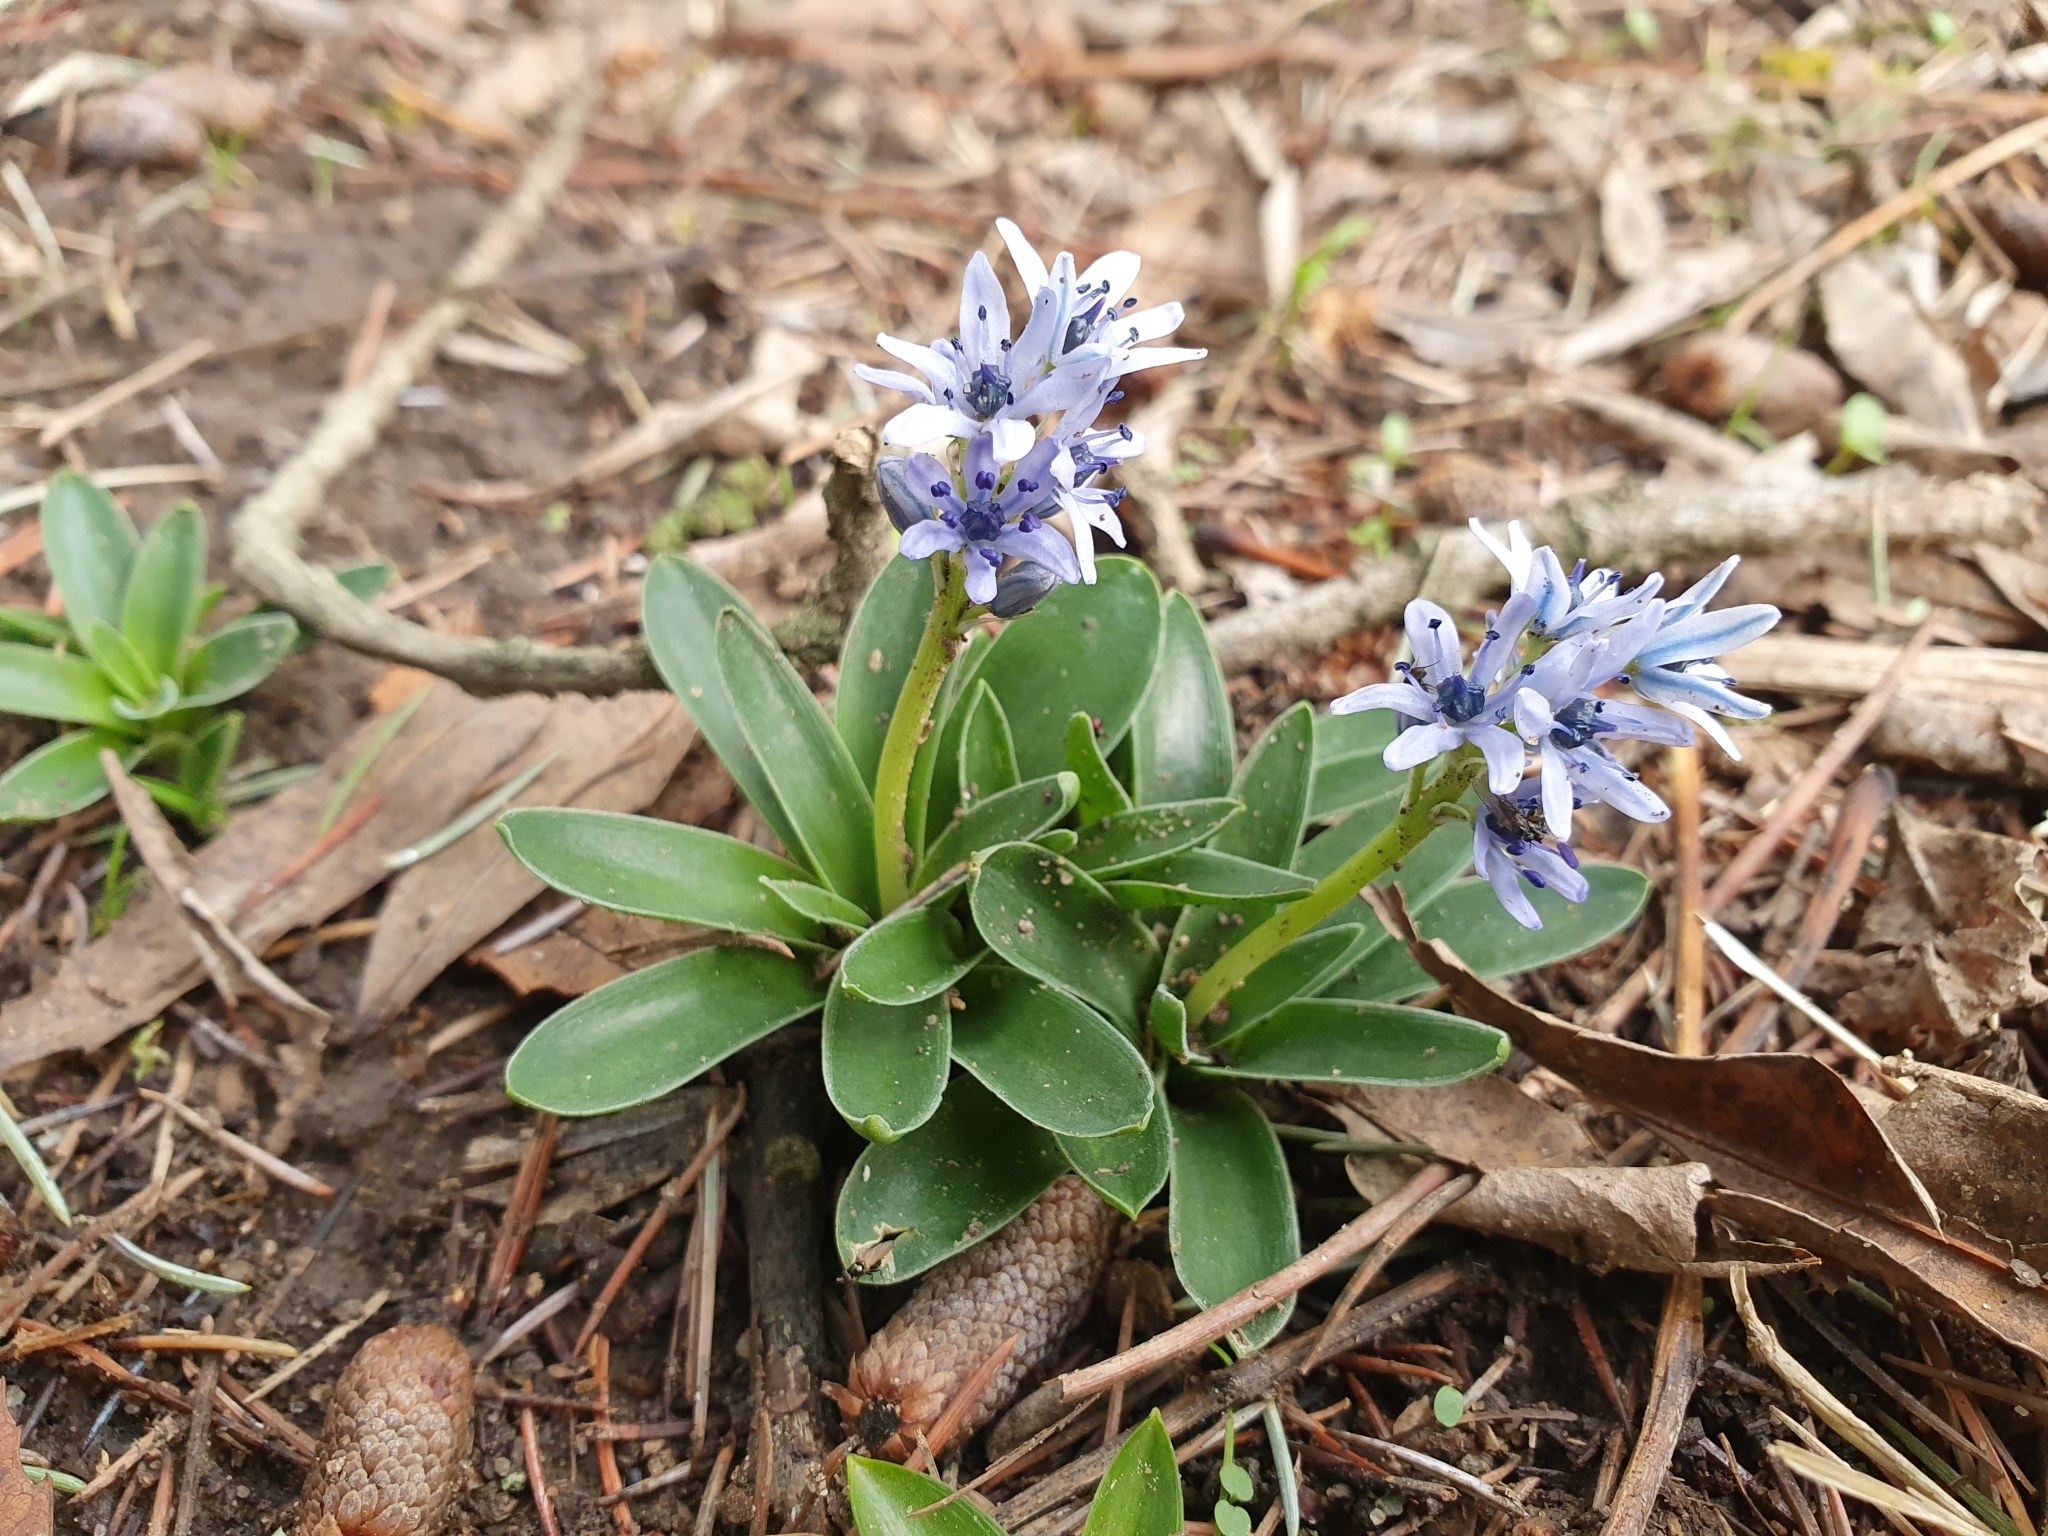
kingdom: Plantae
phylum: Tracheophyta
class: Liliopsida
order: Asparagales
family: Asparagaceae
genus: Hyacinthoides
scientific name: Hyacinthoides lingulata
